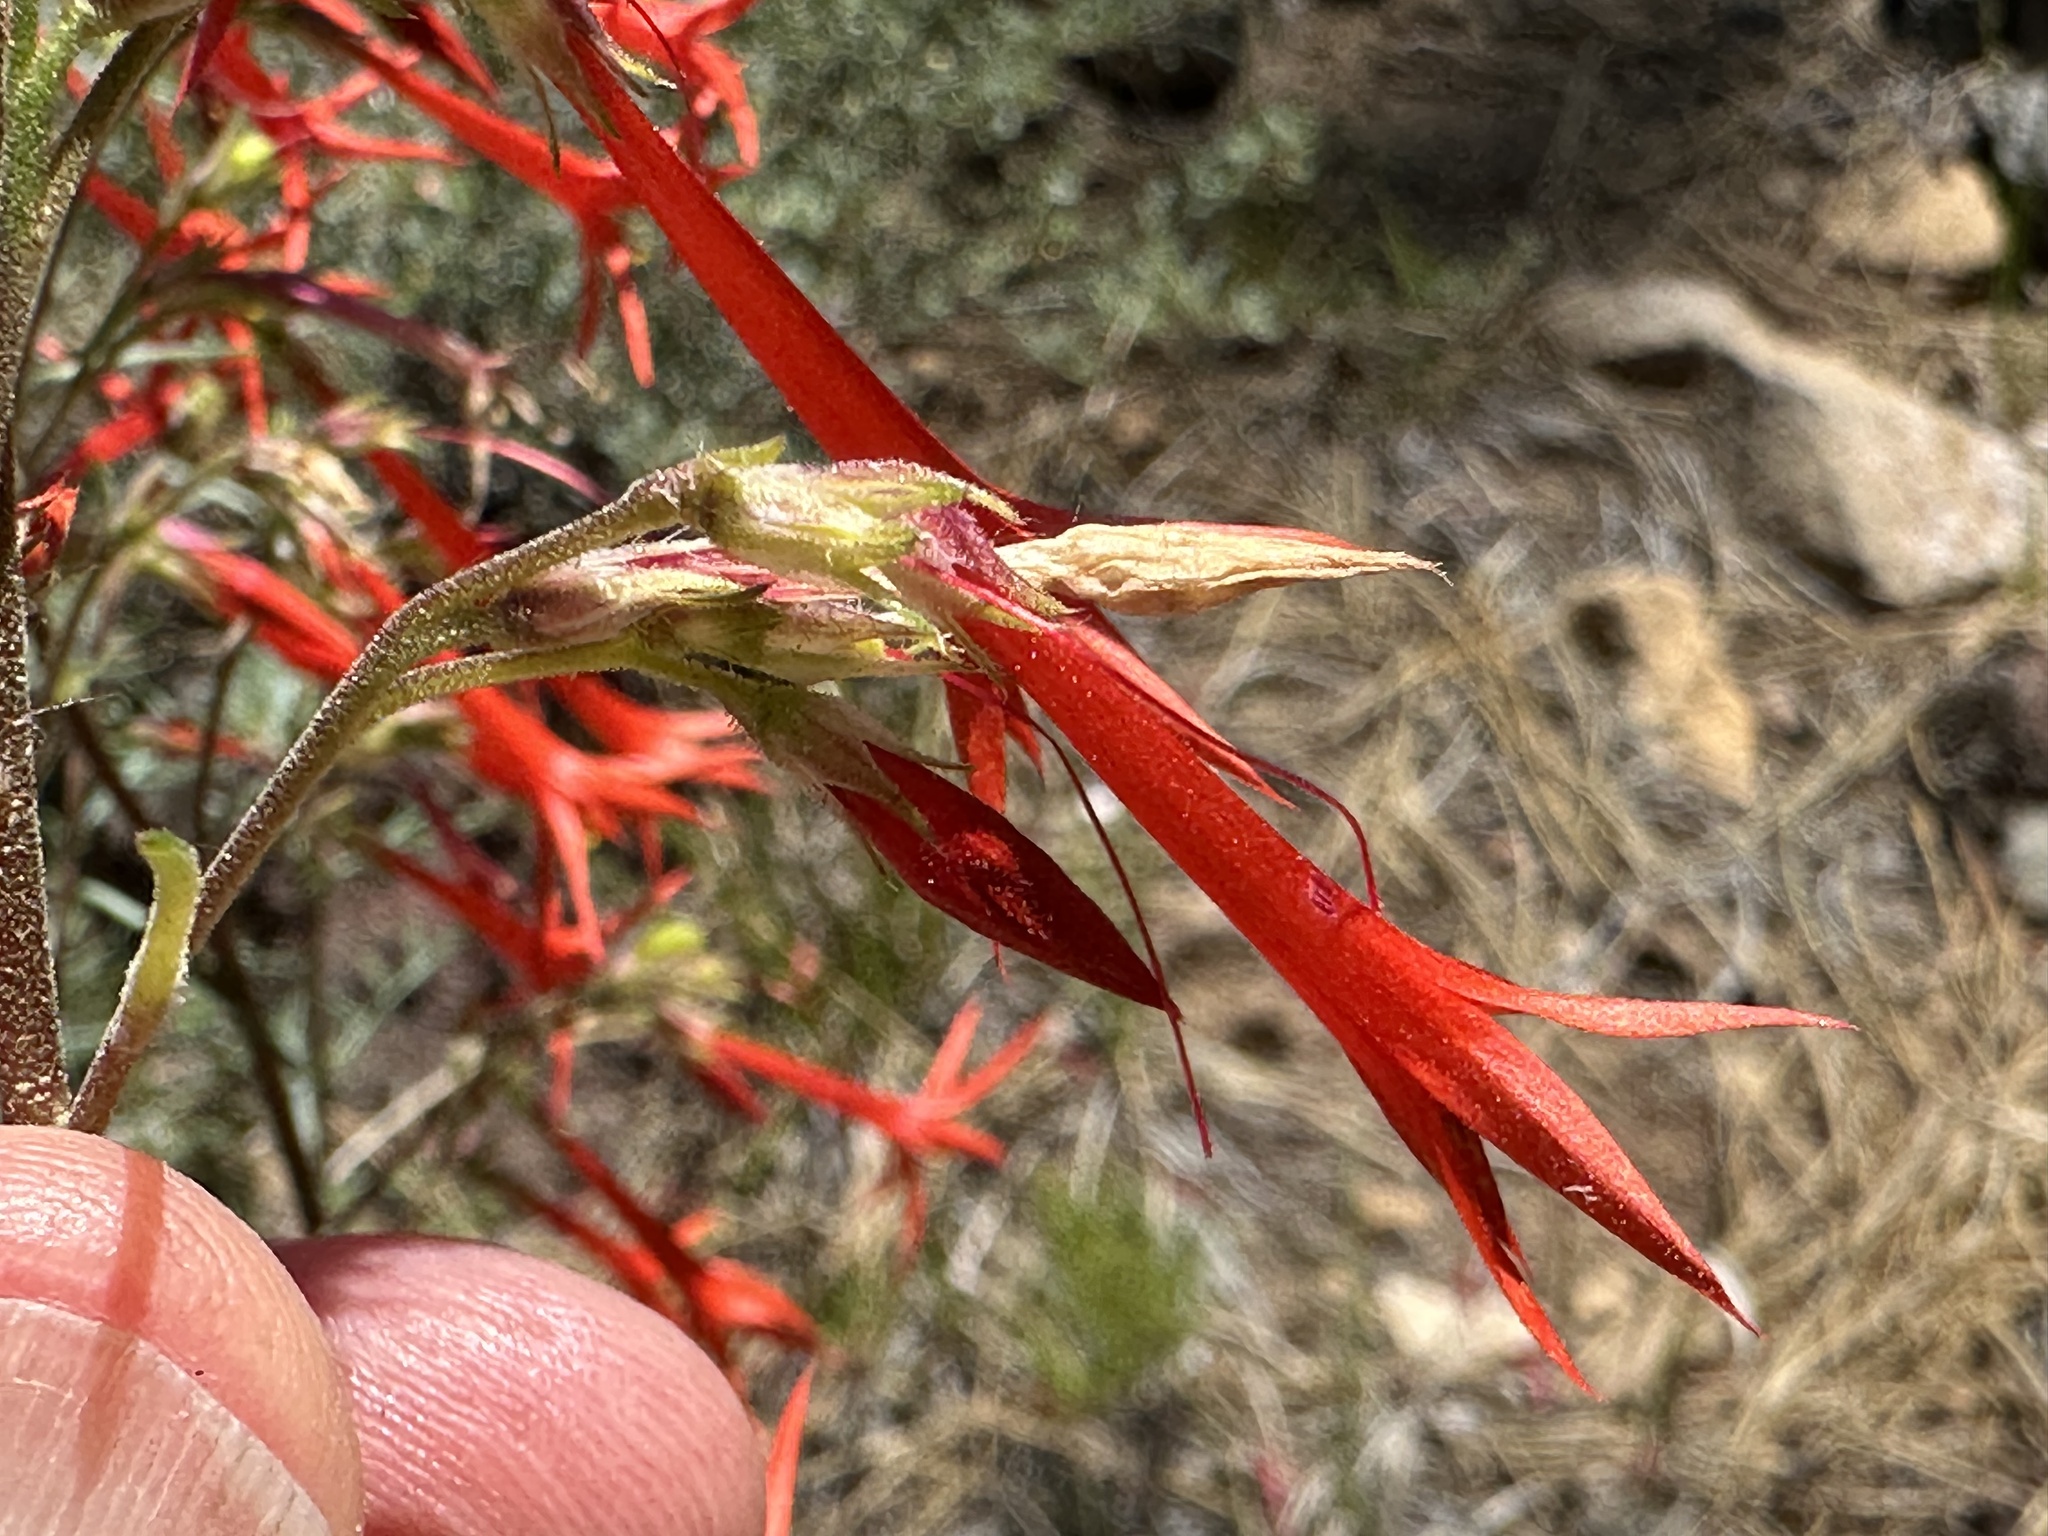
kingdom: Plantae
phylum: Tracheophyta
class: Magnoliopsida
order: Ericales
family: Polemoniaceae
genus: Ipomopsis
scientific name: Ipomopsis aggregata
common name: Scarlet gilia
